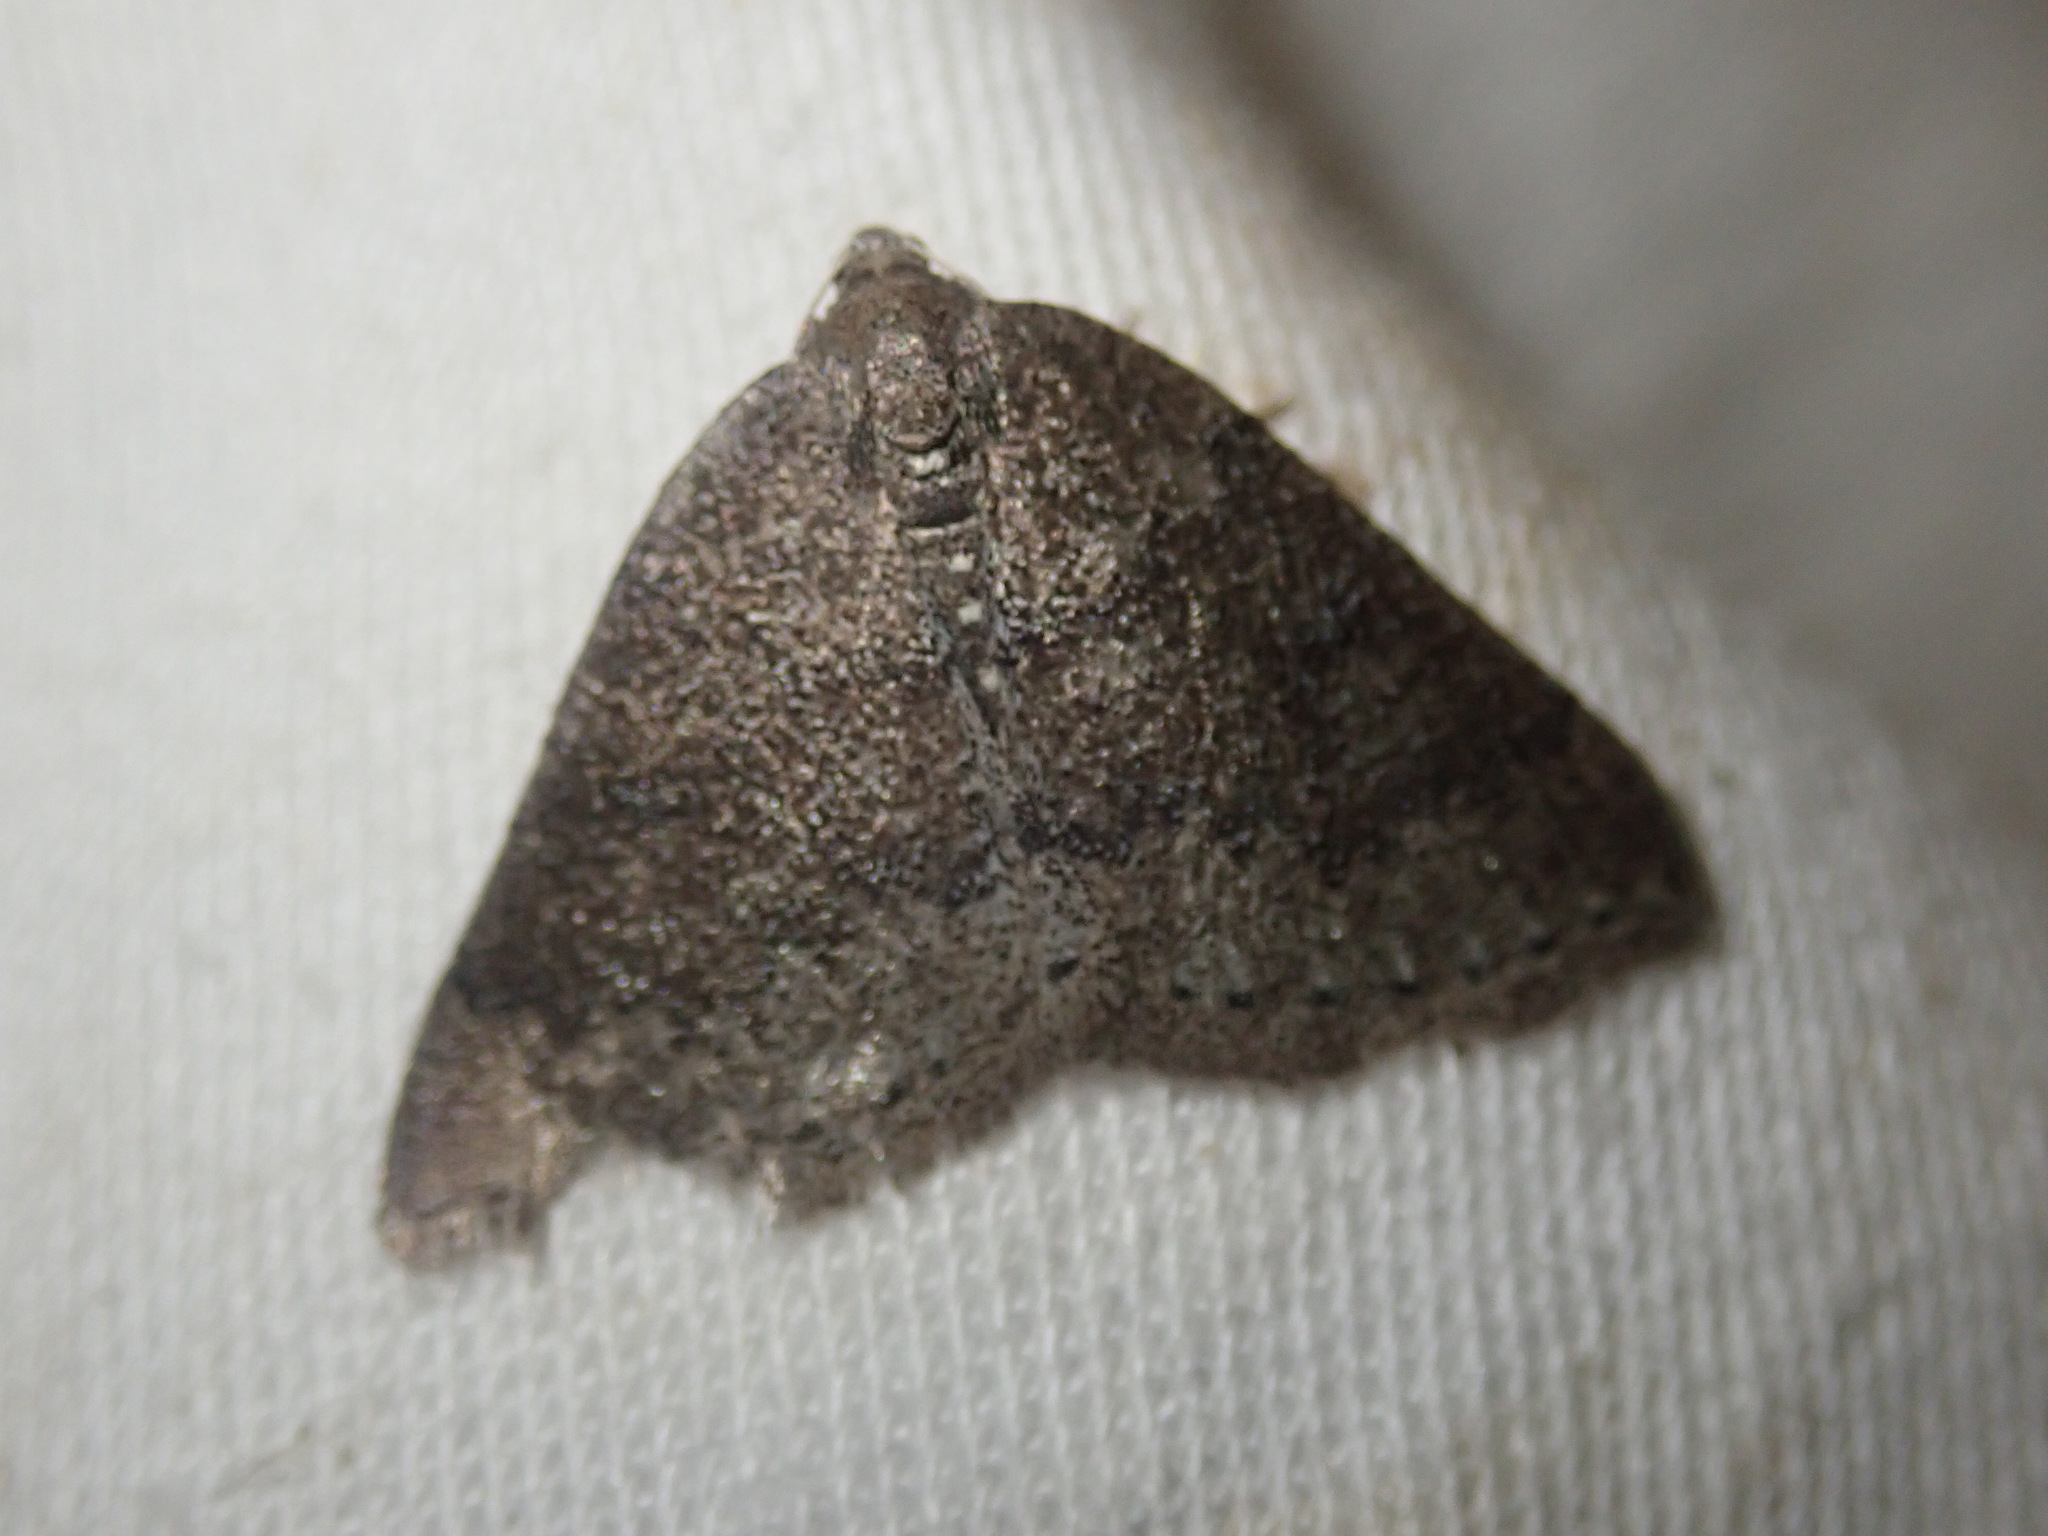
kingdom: Animalia
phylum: Arthropoda
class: Insecta
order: Lepidoptera
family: Geometridae
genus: Aleucis
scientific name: Aleucis distinctata
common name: Sloe carpet
